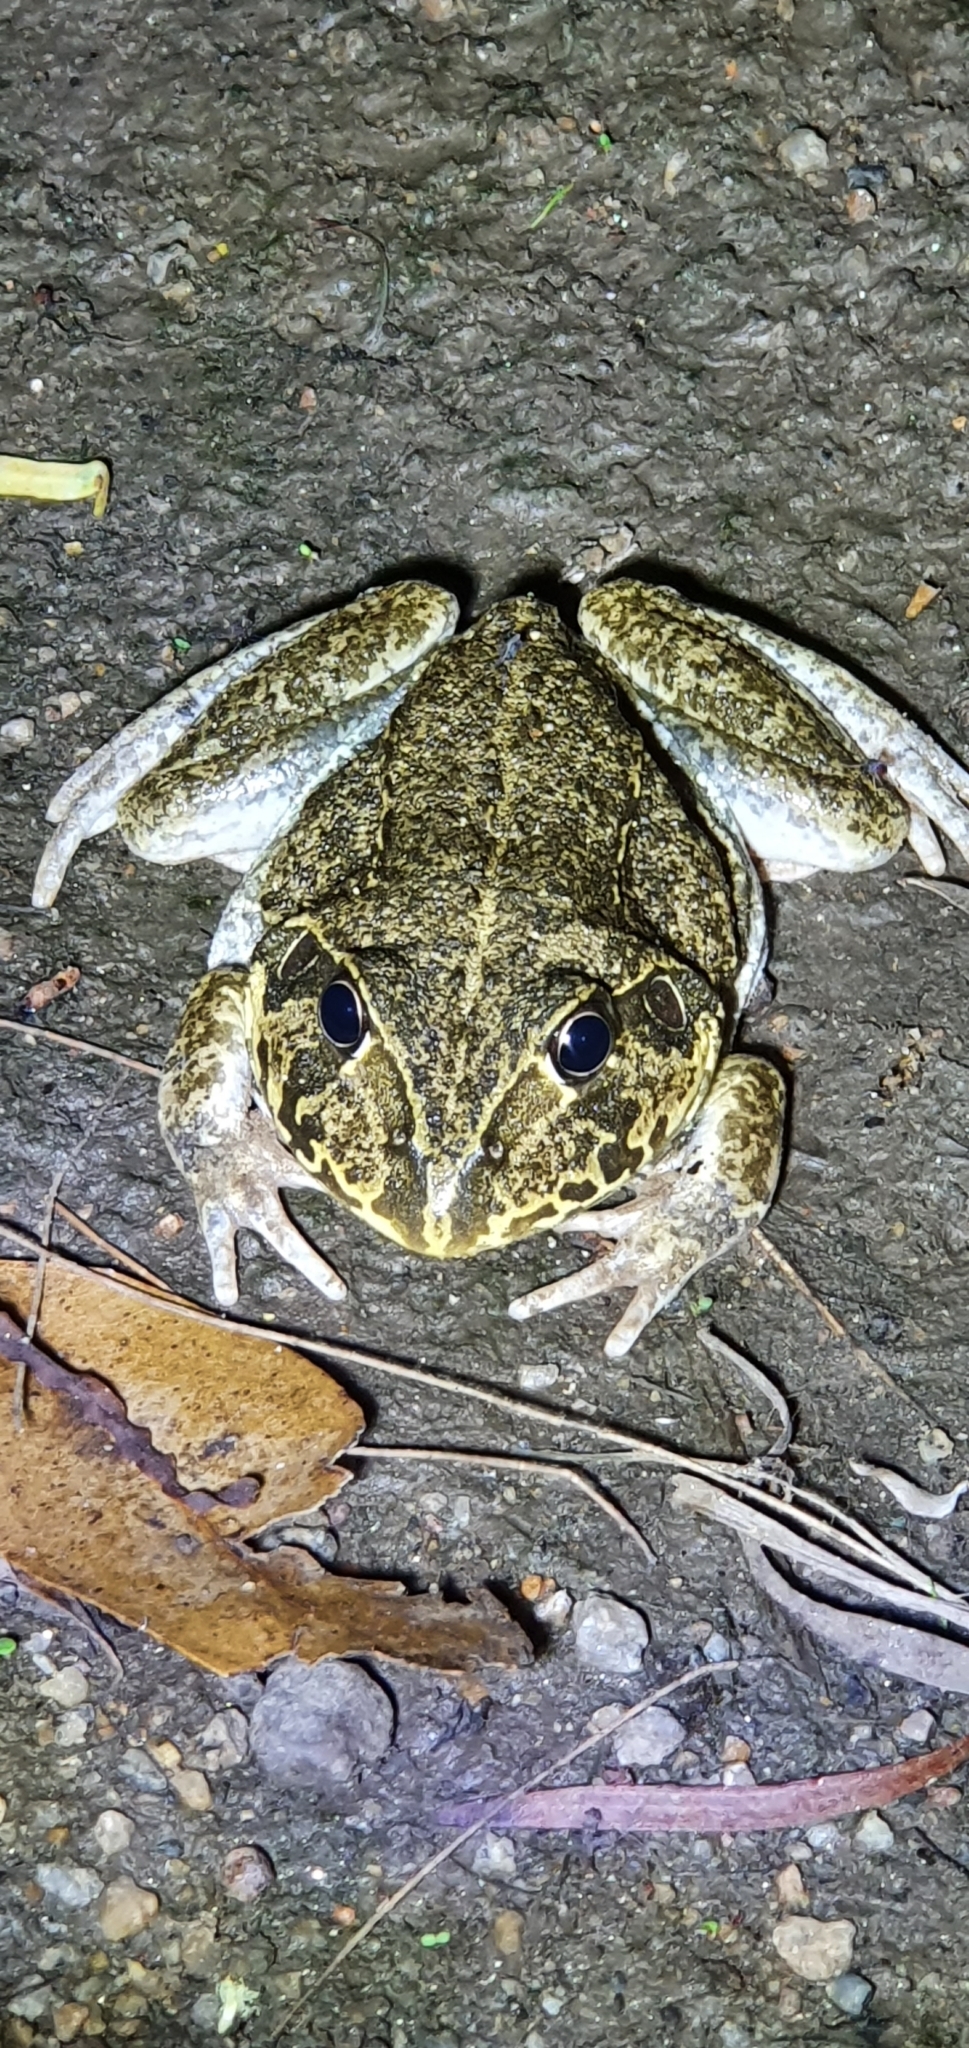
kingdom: Animalia
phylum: Chordata
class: Amphibia
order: Anura
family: Pelodryadidae
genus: Ranoidea
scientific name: Ranoidea novaehollandiae
